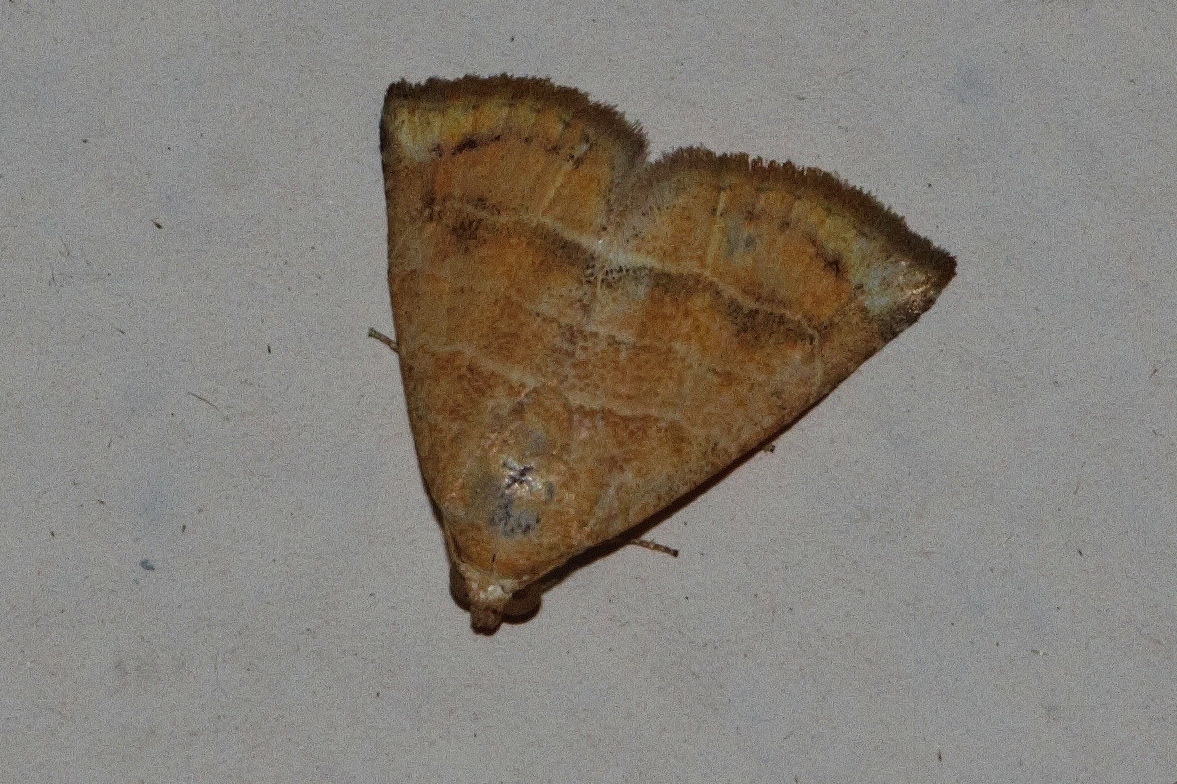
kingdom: Animalia
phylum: Arthropoda
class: Insecta
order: Lepidoptera
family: Noctuidae
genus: Eublemma
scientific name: Eublemma baccatrix
